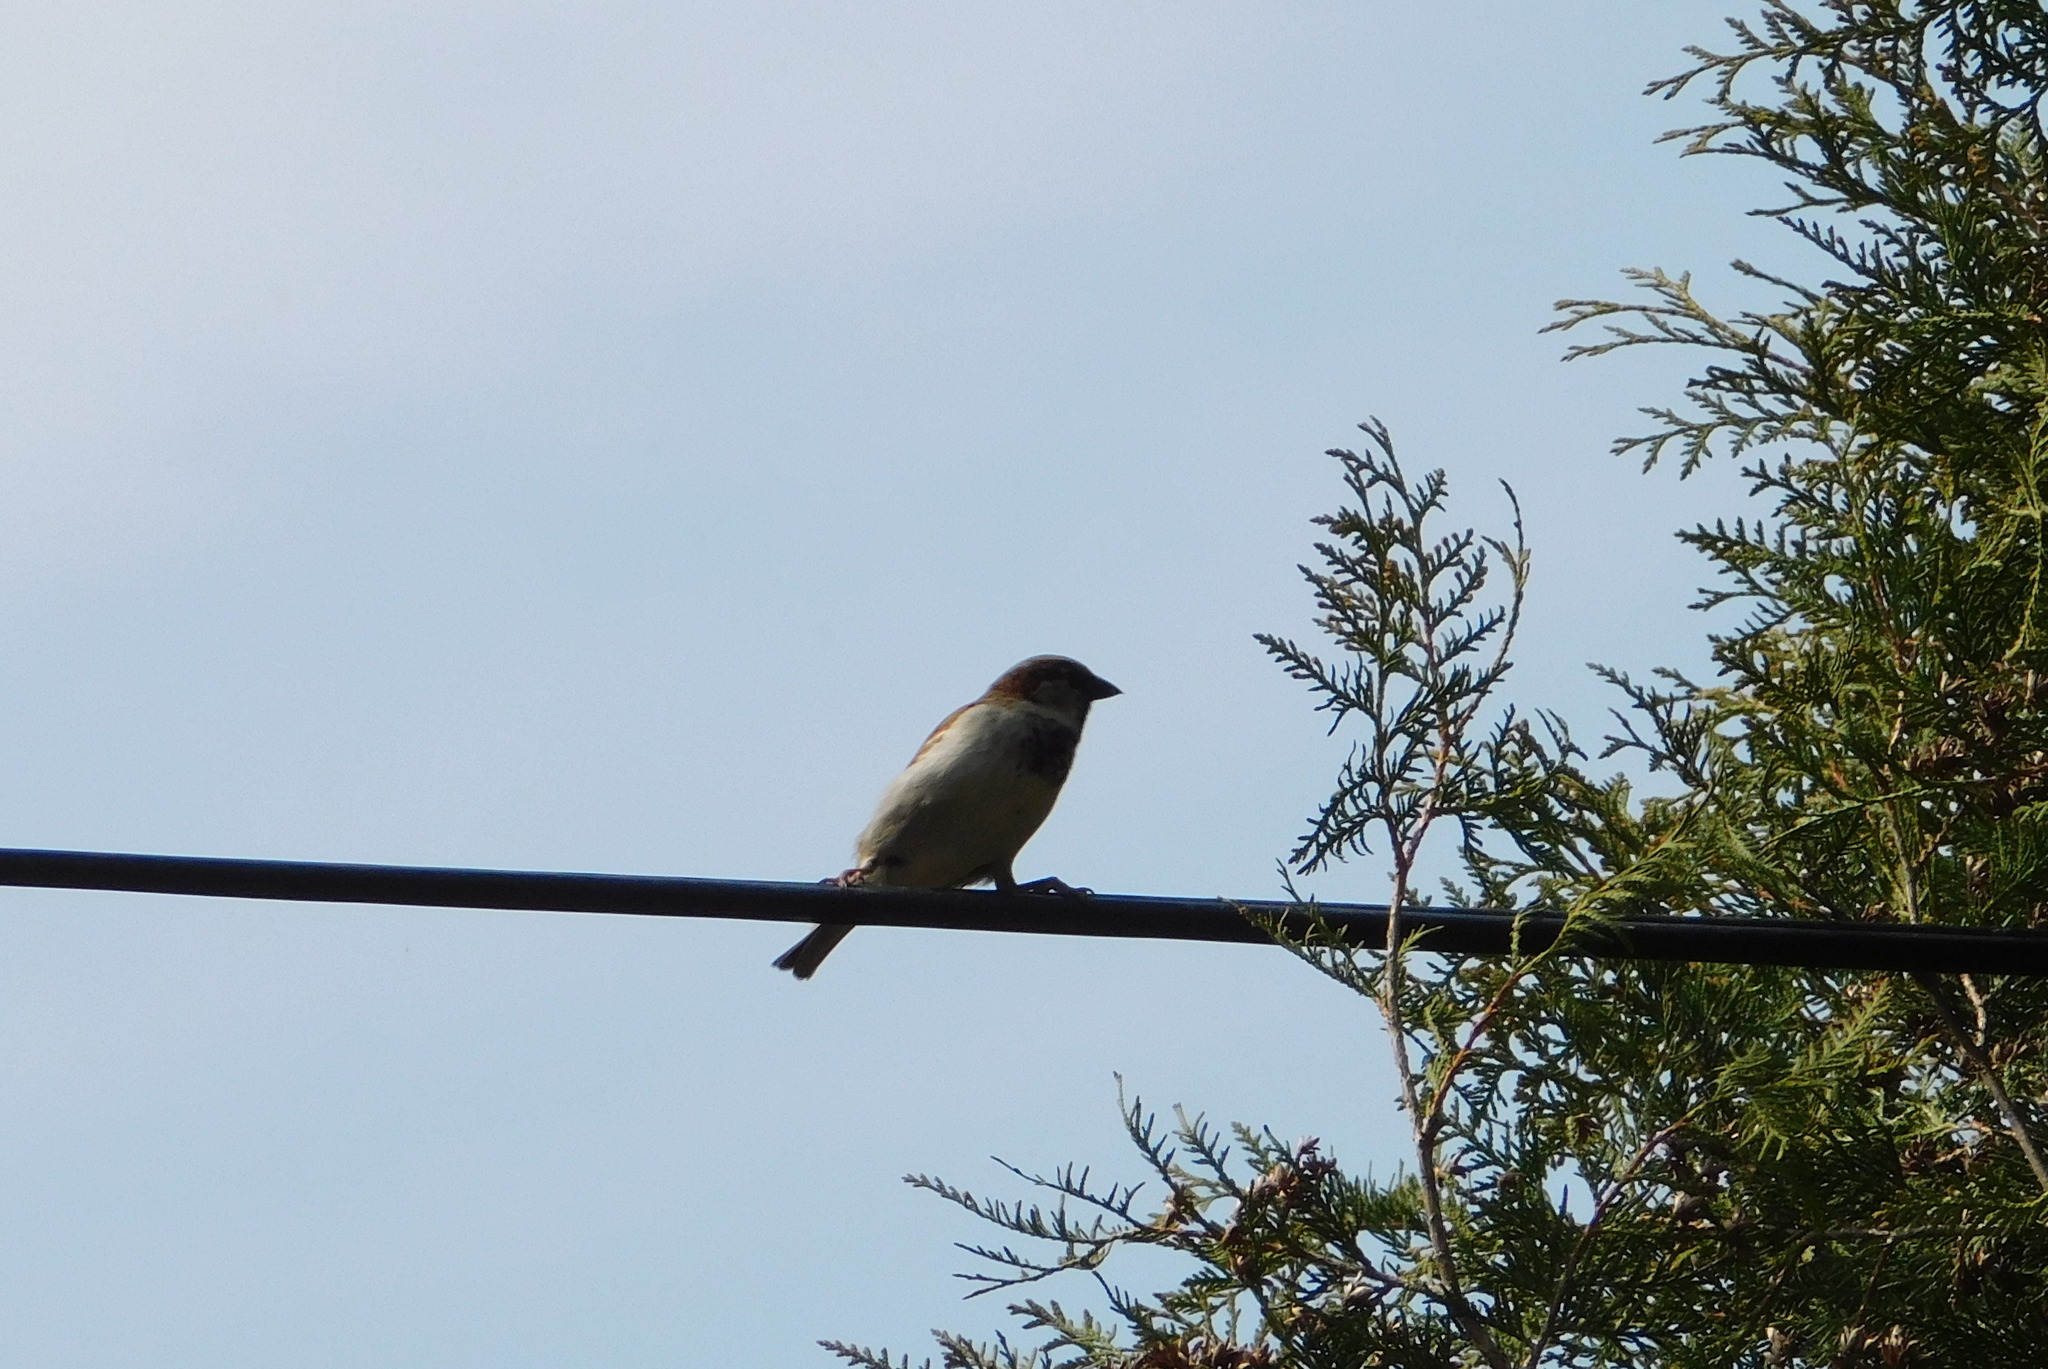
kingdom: Animalia
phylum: Chordata
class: Aves
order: Passeriformes
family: Passeridae
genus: Passer
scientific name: Passer domesticus
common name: House sparrow
